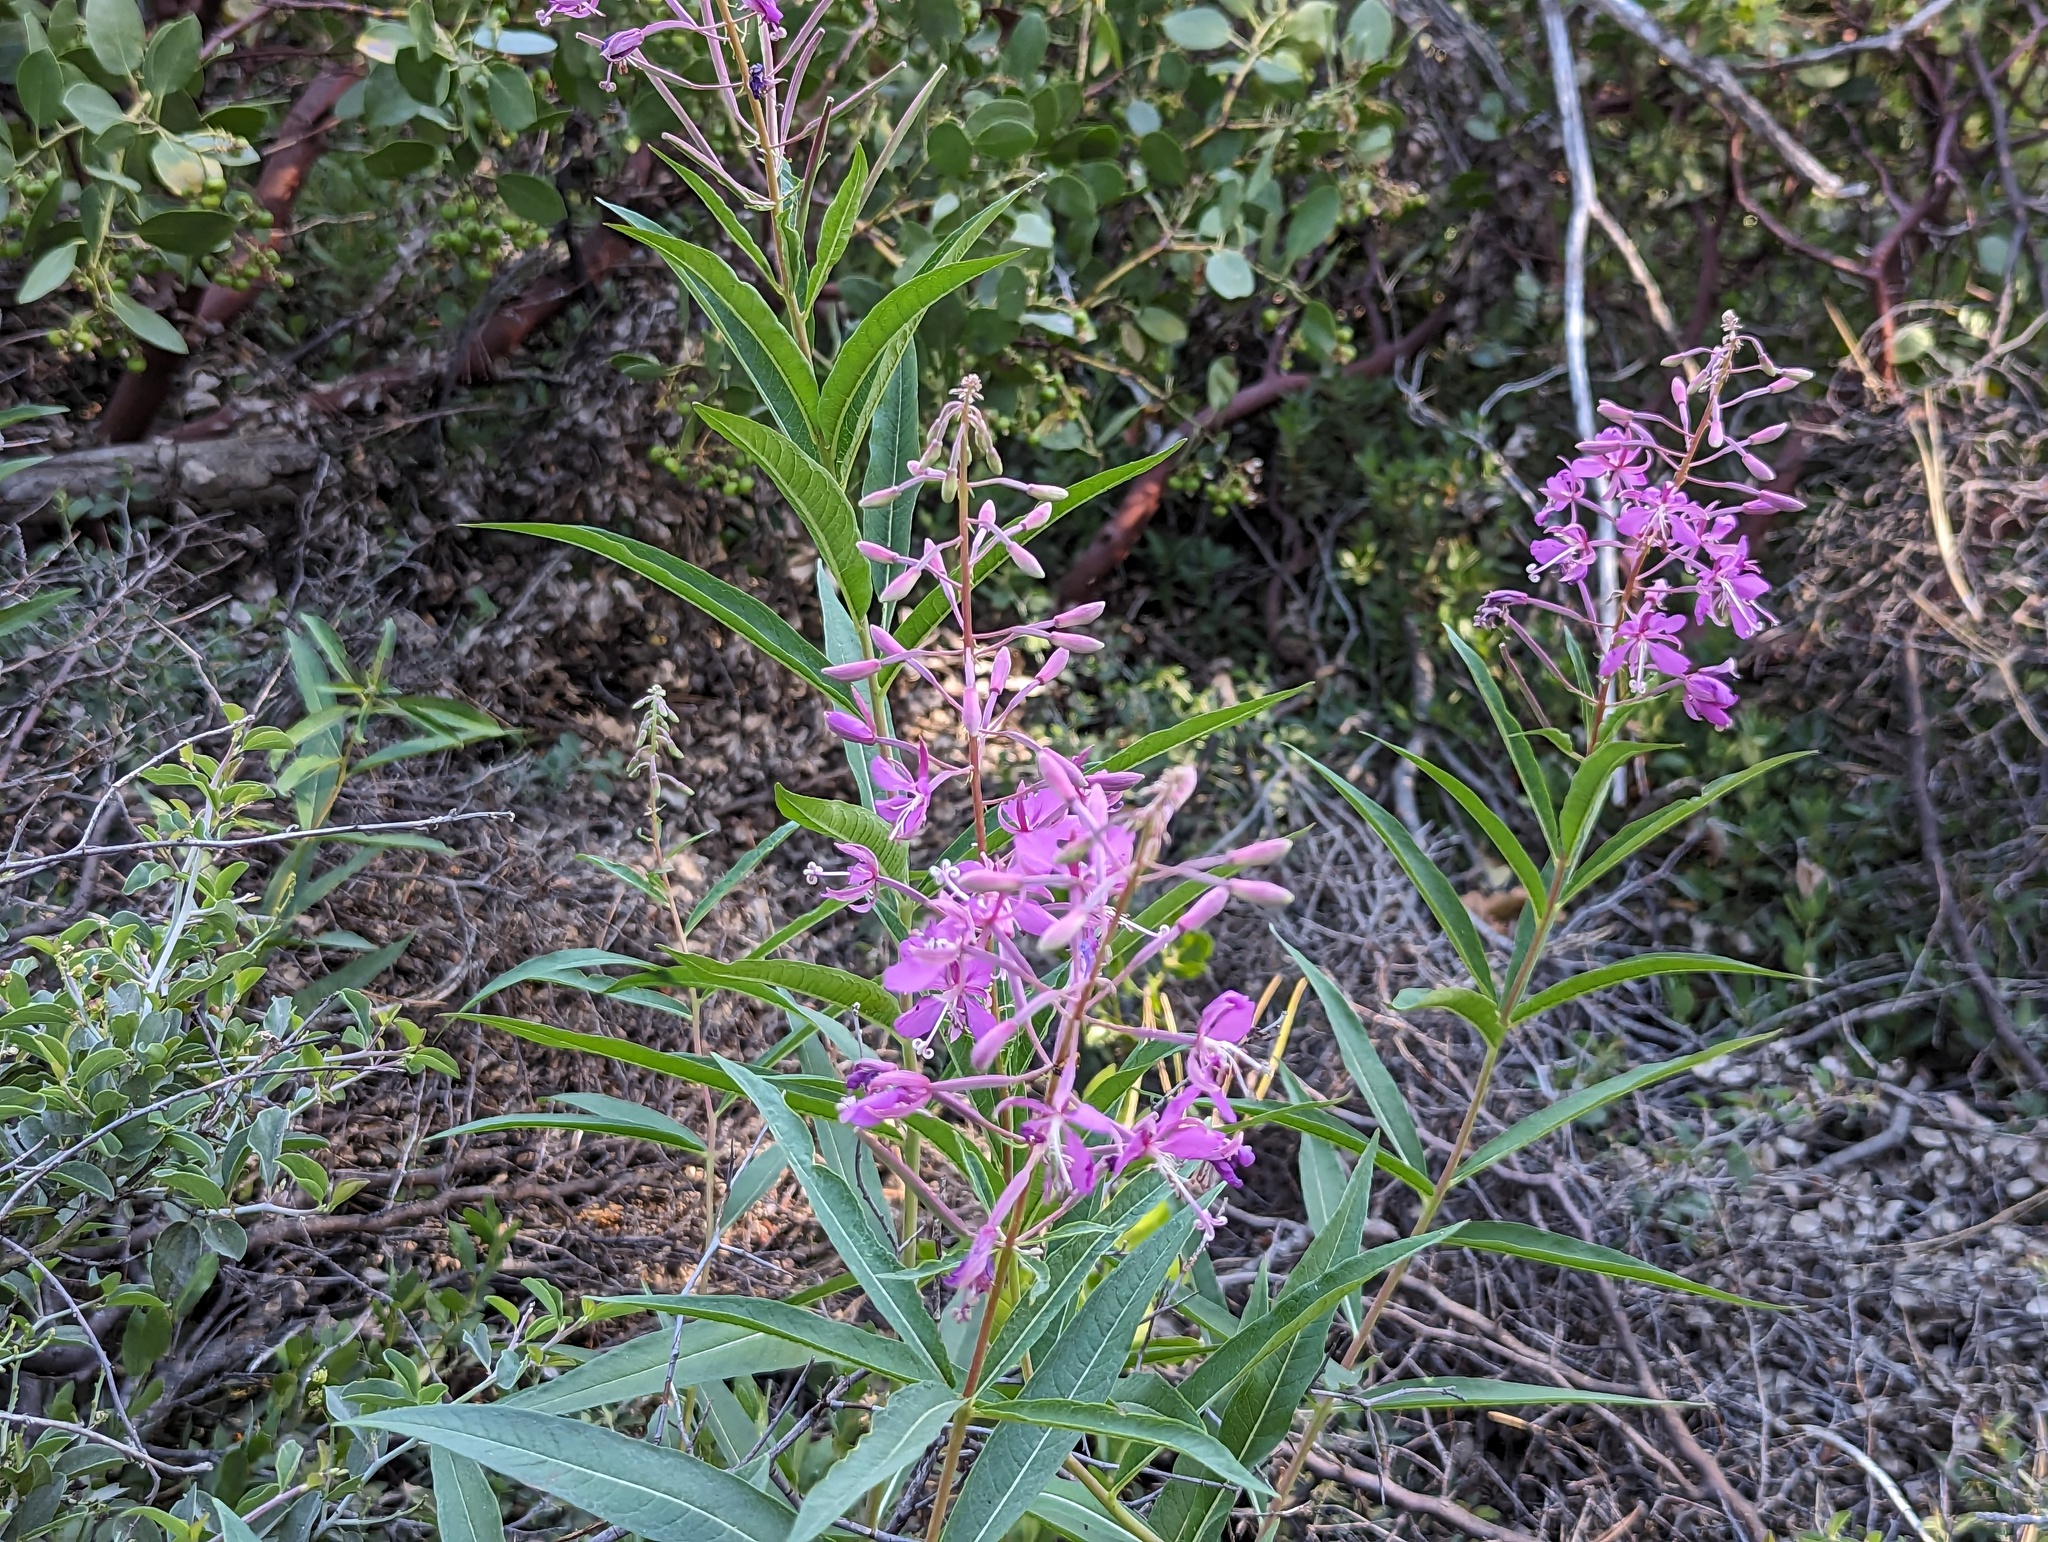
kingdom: Plantae
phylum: Tracheophyta
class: Magnoliopsida
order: Myrtales
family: Onagraceae
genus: Chamaenerion
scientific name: Chamaenerion angustifolium
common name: Fireweed
